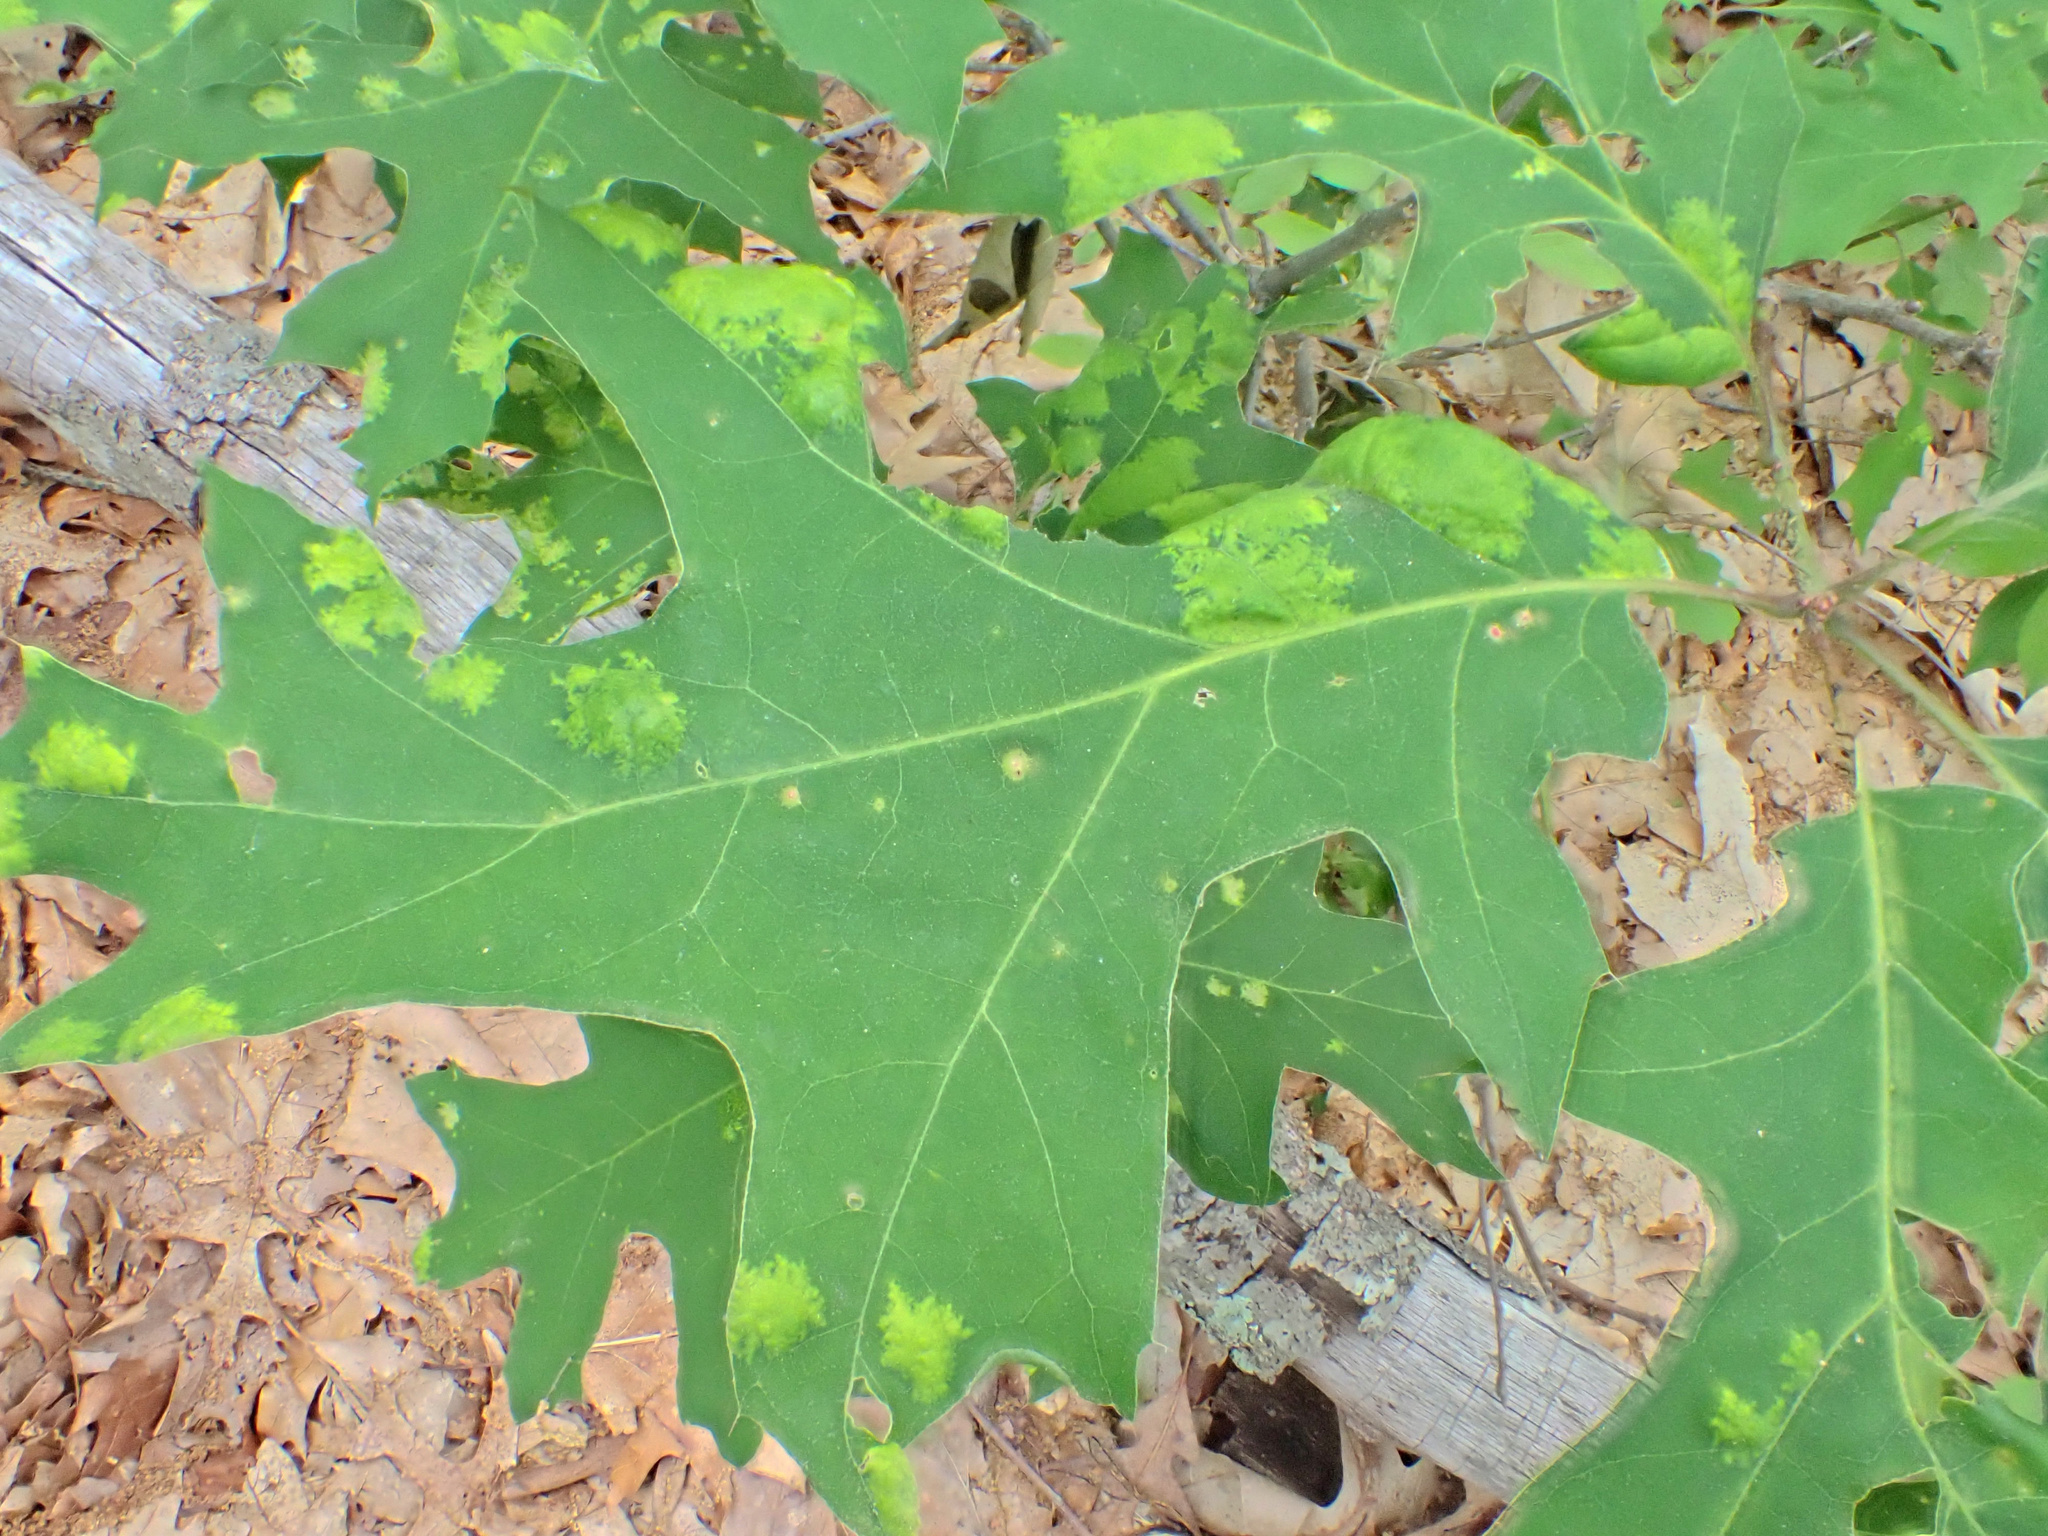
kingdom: Fungi
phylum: Ascomycota
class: Taphrinomycetes
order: Taphrinales
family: Taphrinaceae
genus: Taphrina
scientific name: Taphrina caerulescens
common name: Oak leaf blister
